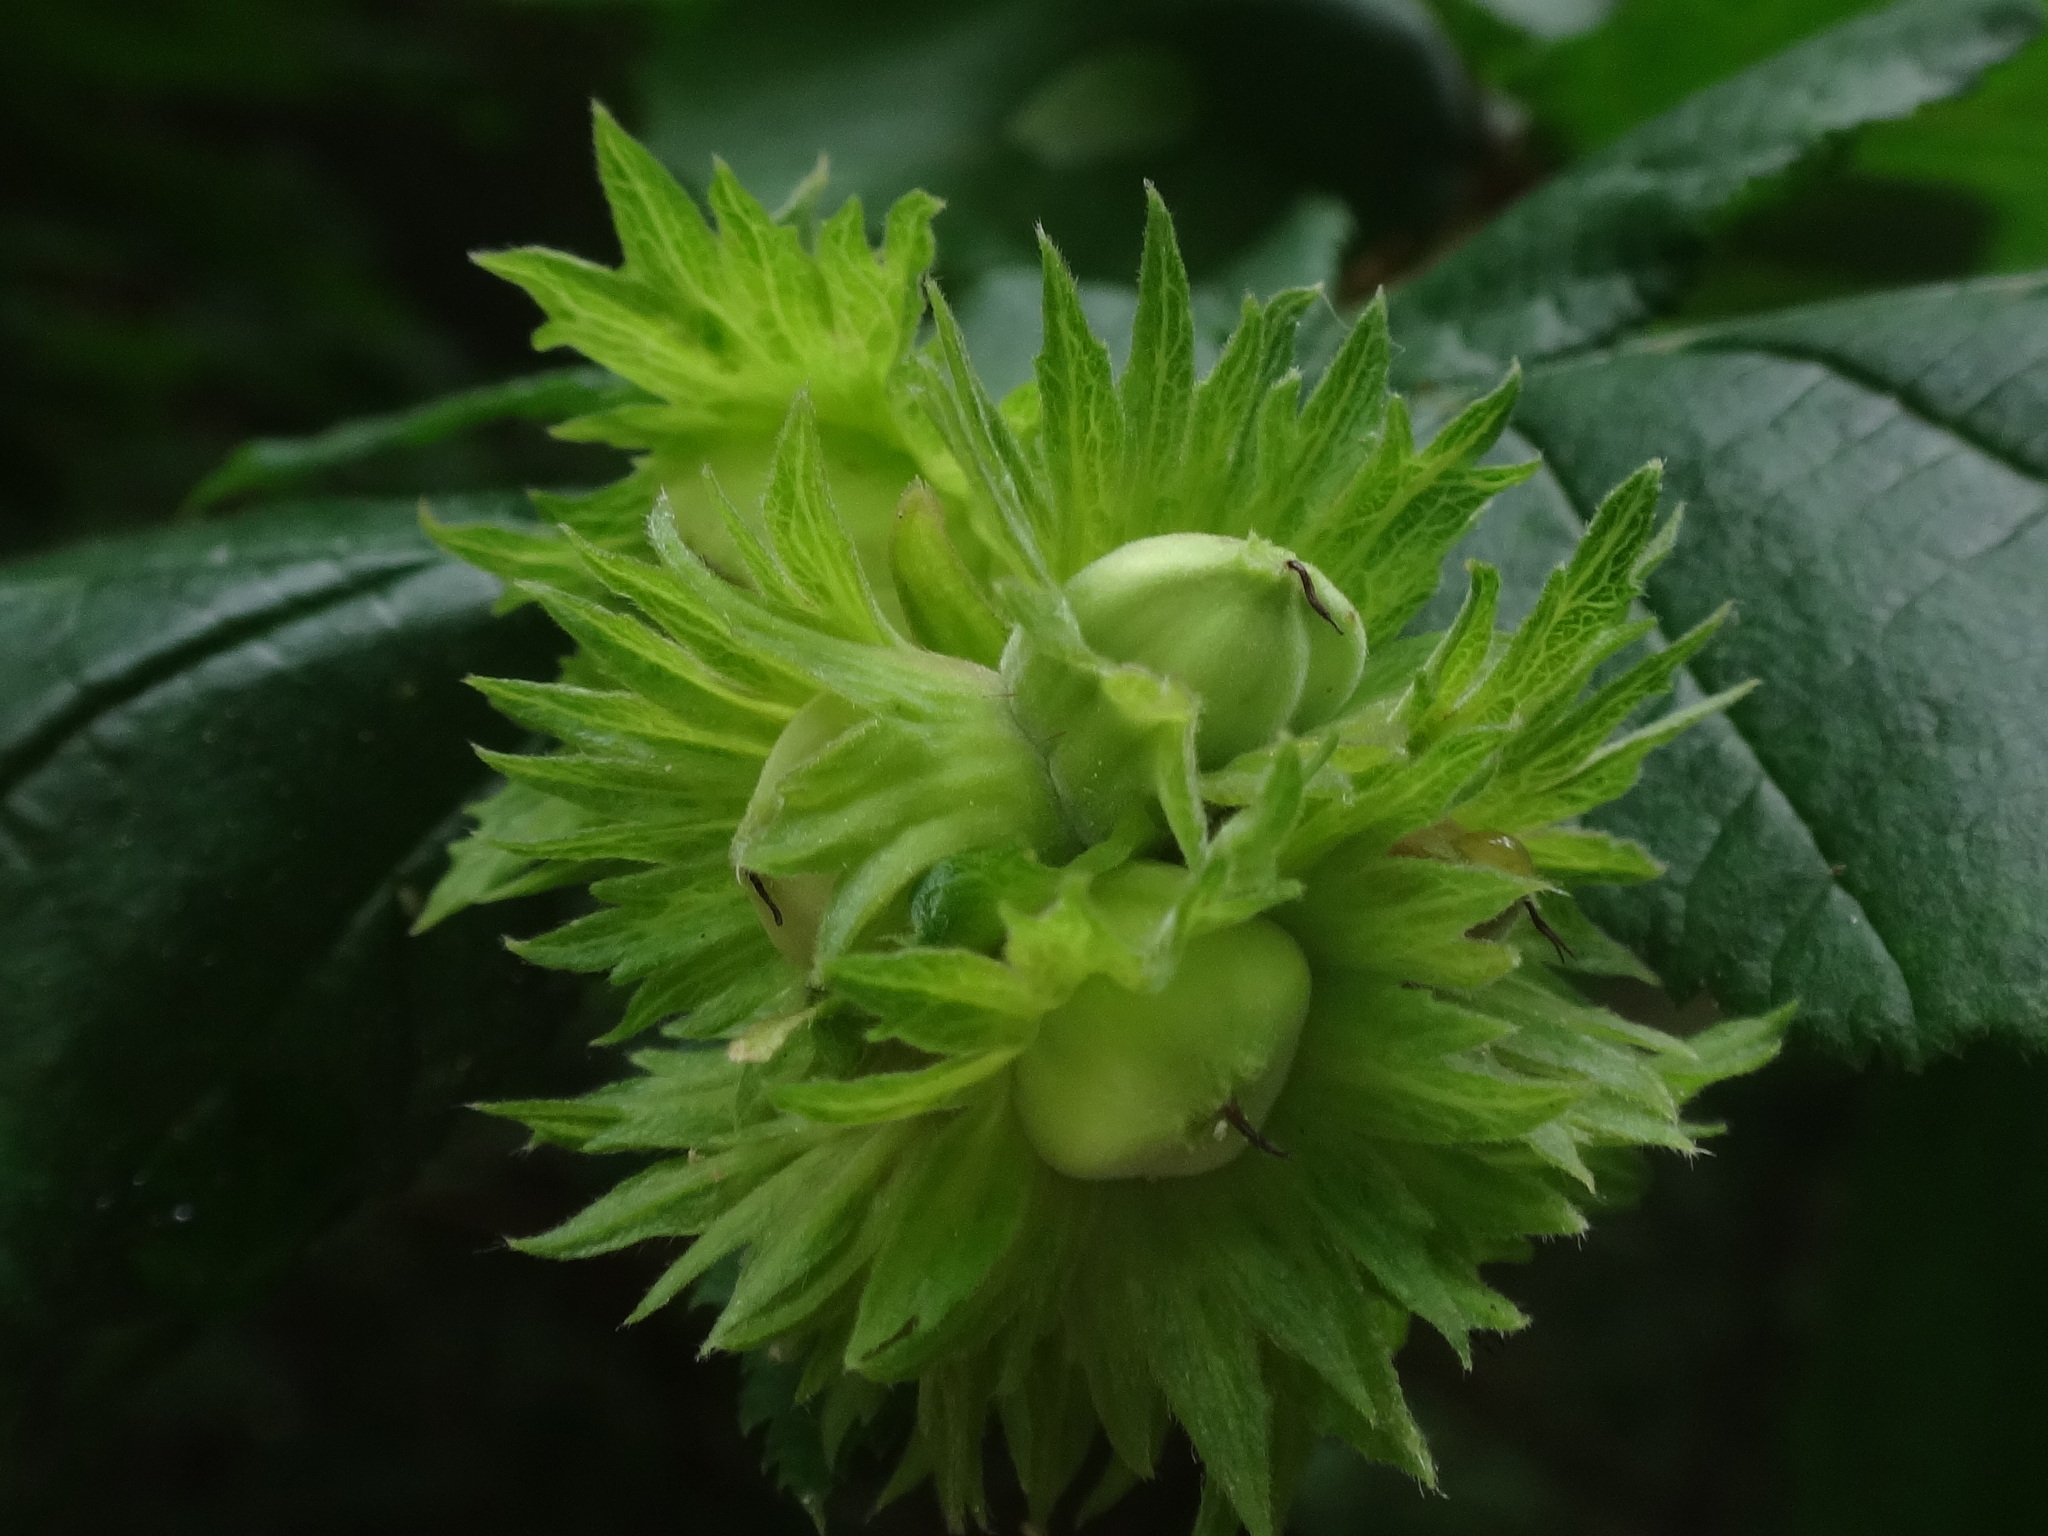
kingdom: Plantae
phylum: Tracheophyta
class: Magnoliopsida
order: Fagales
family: Betulaceae
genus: Corylus
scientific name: Corylus avellana
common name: European hazel
